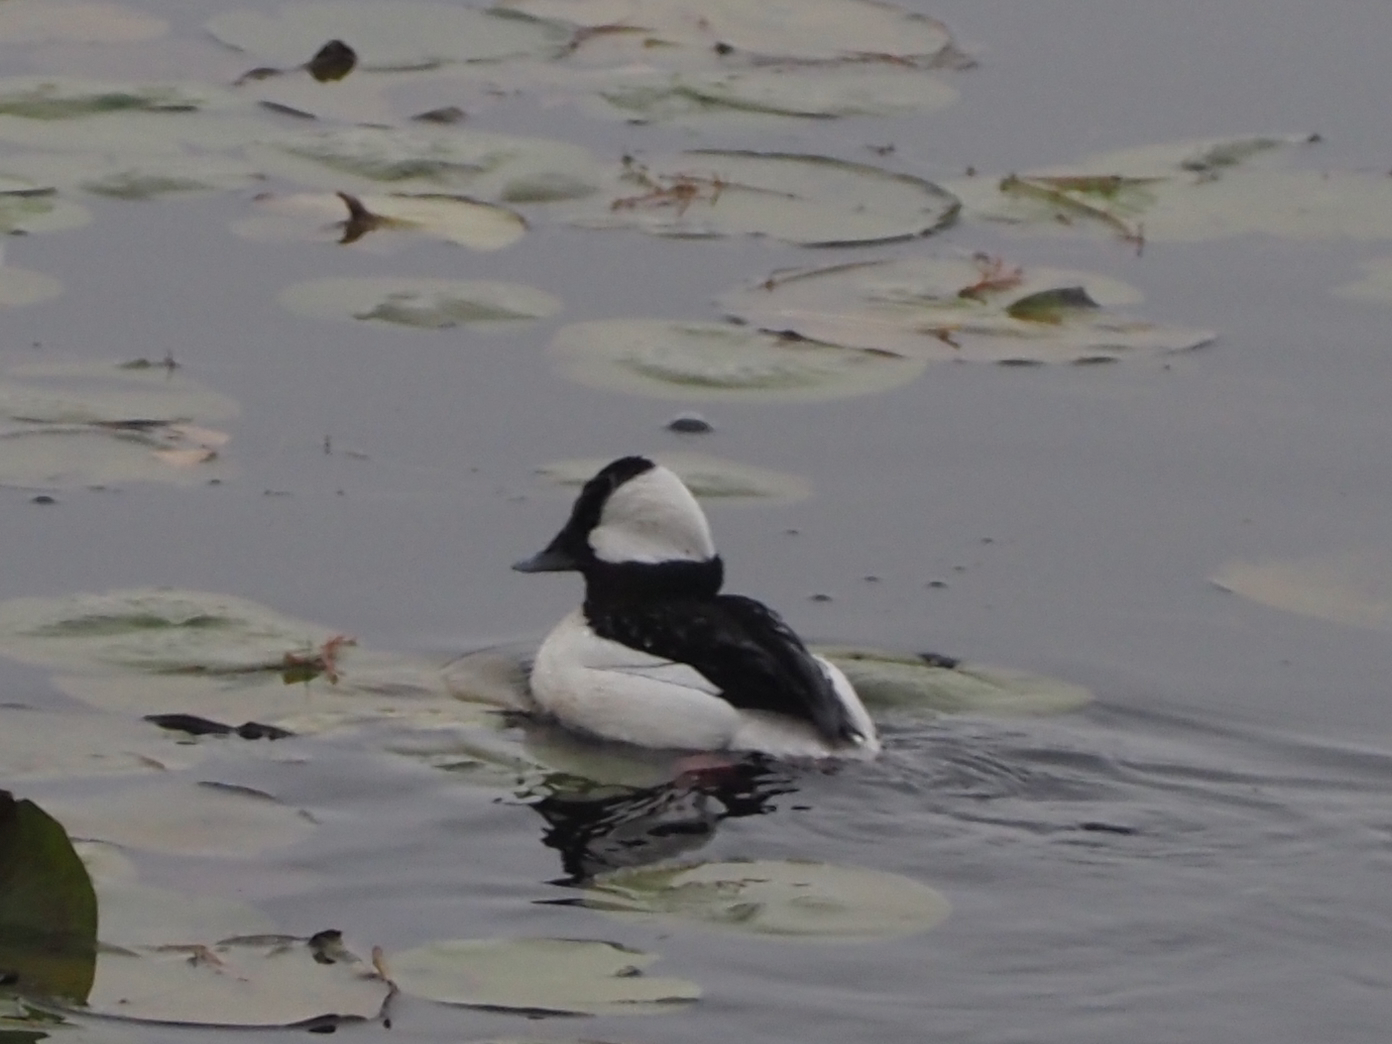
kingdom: Animalia
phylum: Chordata
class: Aves
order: Anseriformes
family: Anatidae
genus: Bucephala
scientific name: Bucephala albeola
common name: Bufflehead
